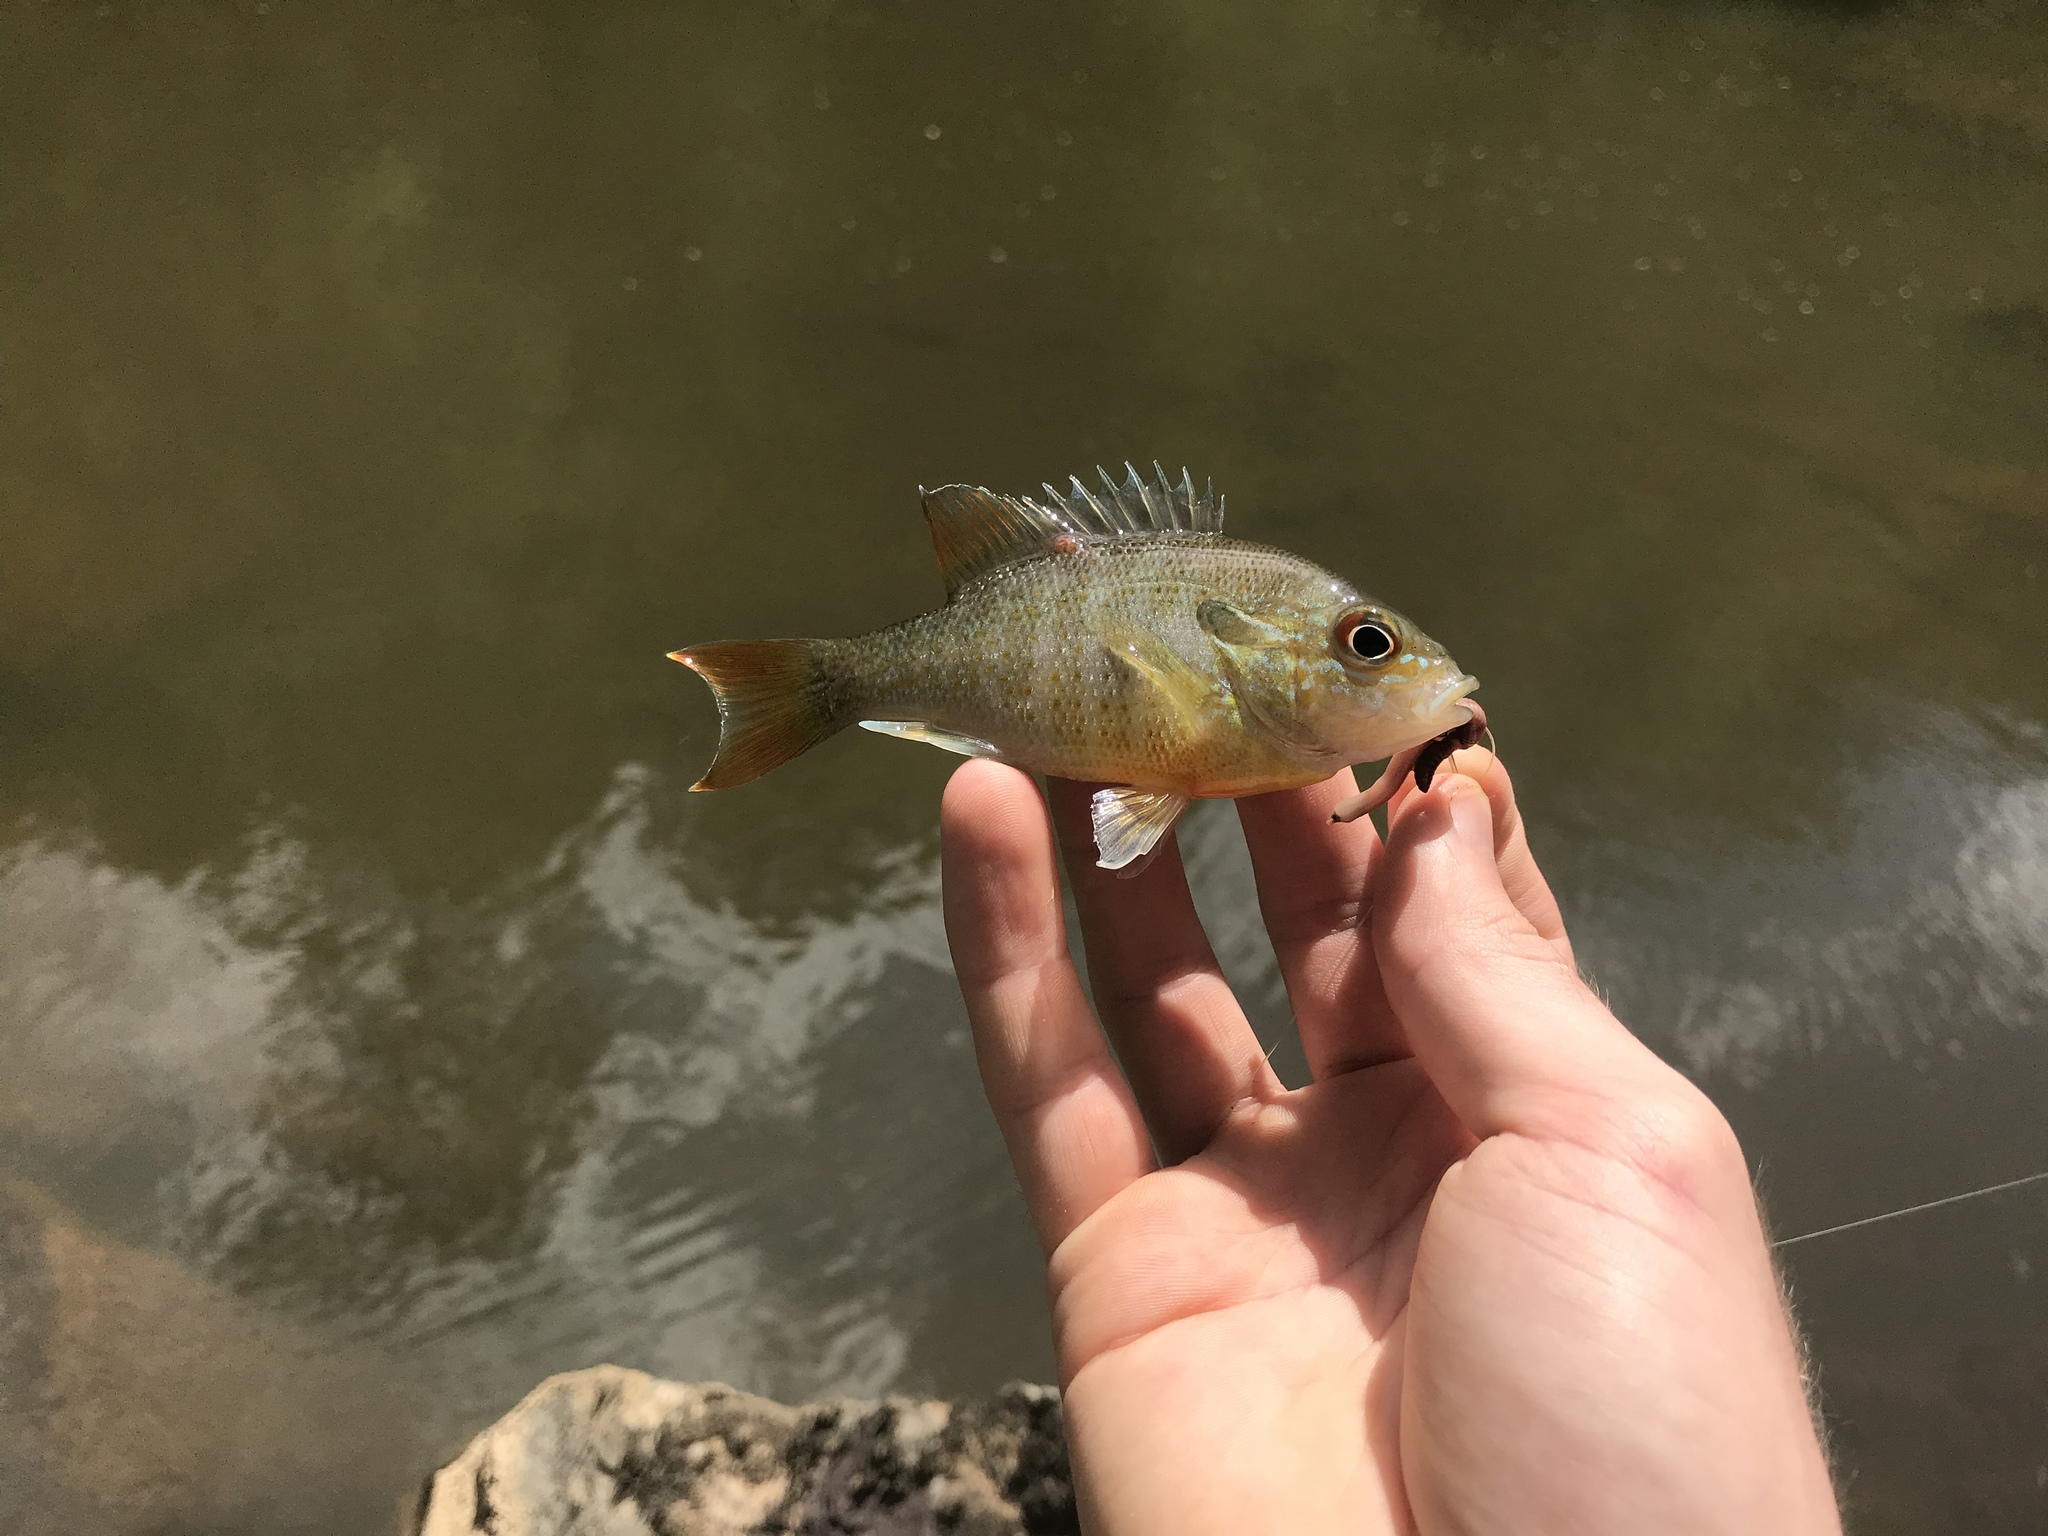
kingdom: Animalia
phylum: Chordata
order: Perciformes
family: Centrarchidae
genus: Lepomis
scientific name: Lepomis auritus
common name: Redbreast sunfish
